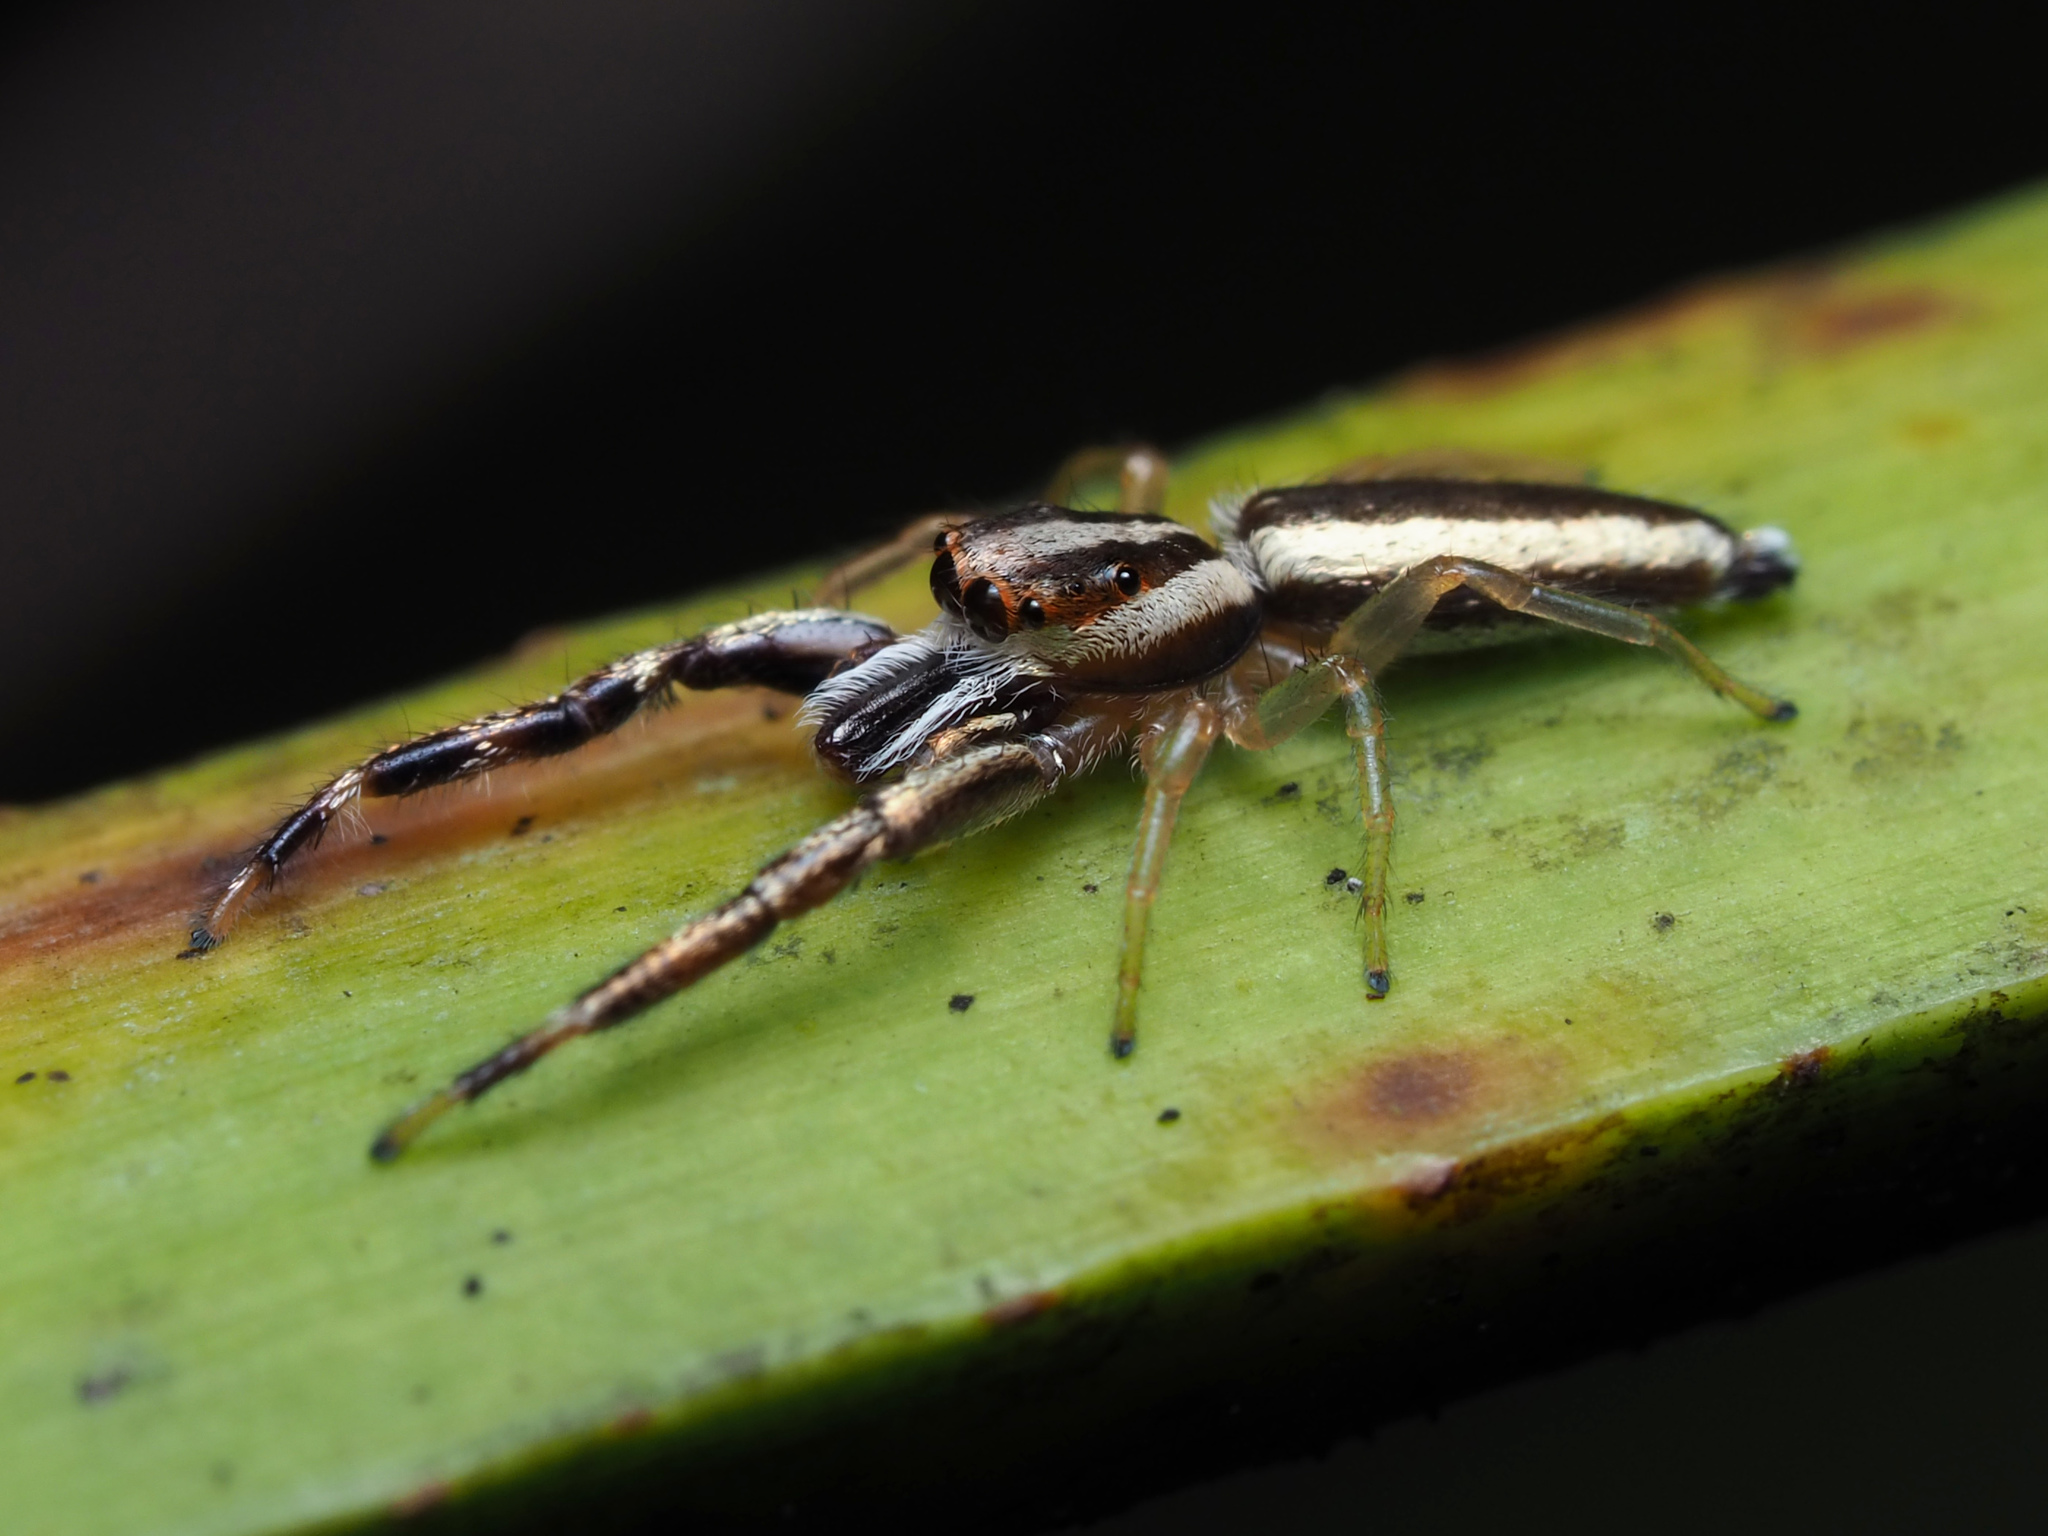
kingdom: Animalia
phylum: Arthropoda
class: Arachnida
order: Araneae
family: Salticidae
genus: Hentzia
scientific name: Hentzia grenada
